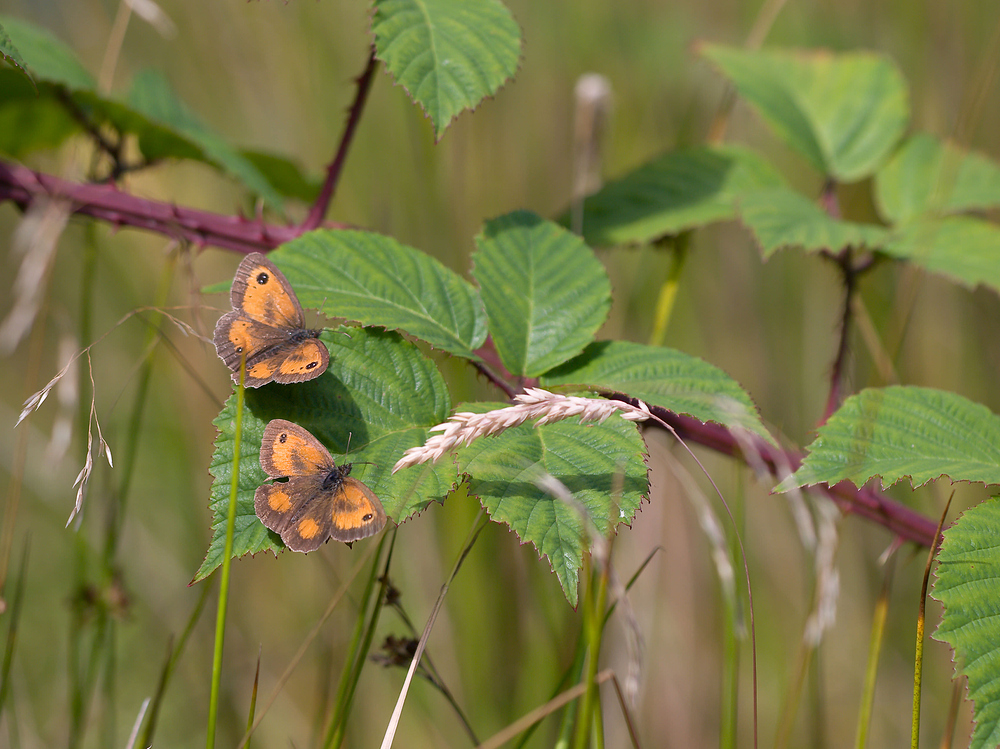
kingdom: Animalia
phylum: Arthropoda
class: Insecta
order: Lepidoptera
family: Nymphalidae
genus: Pyronia
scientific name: Pyronia tithonus
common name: Gatekeeper
